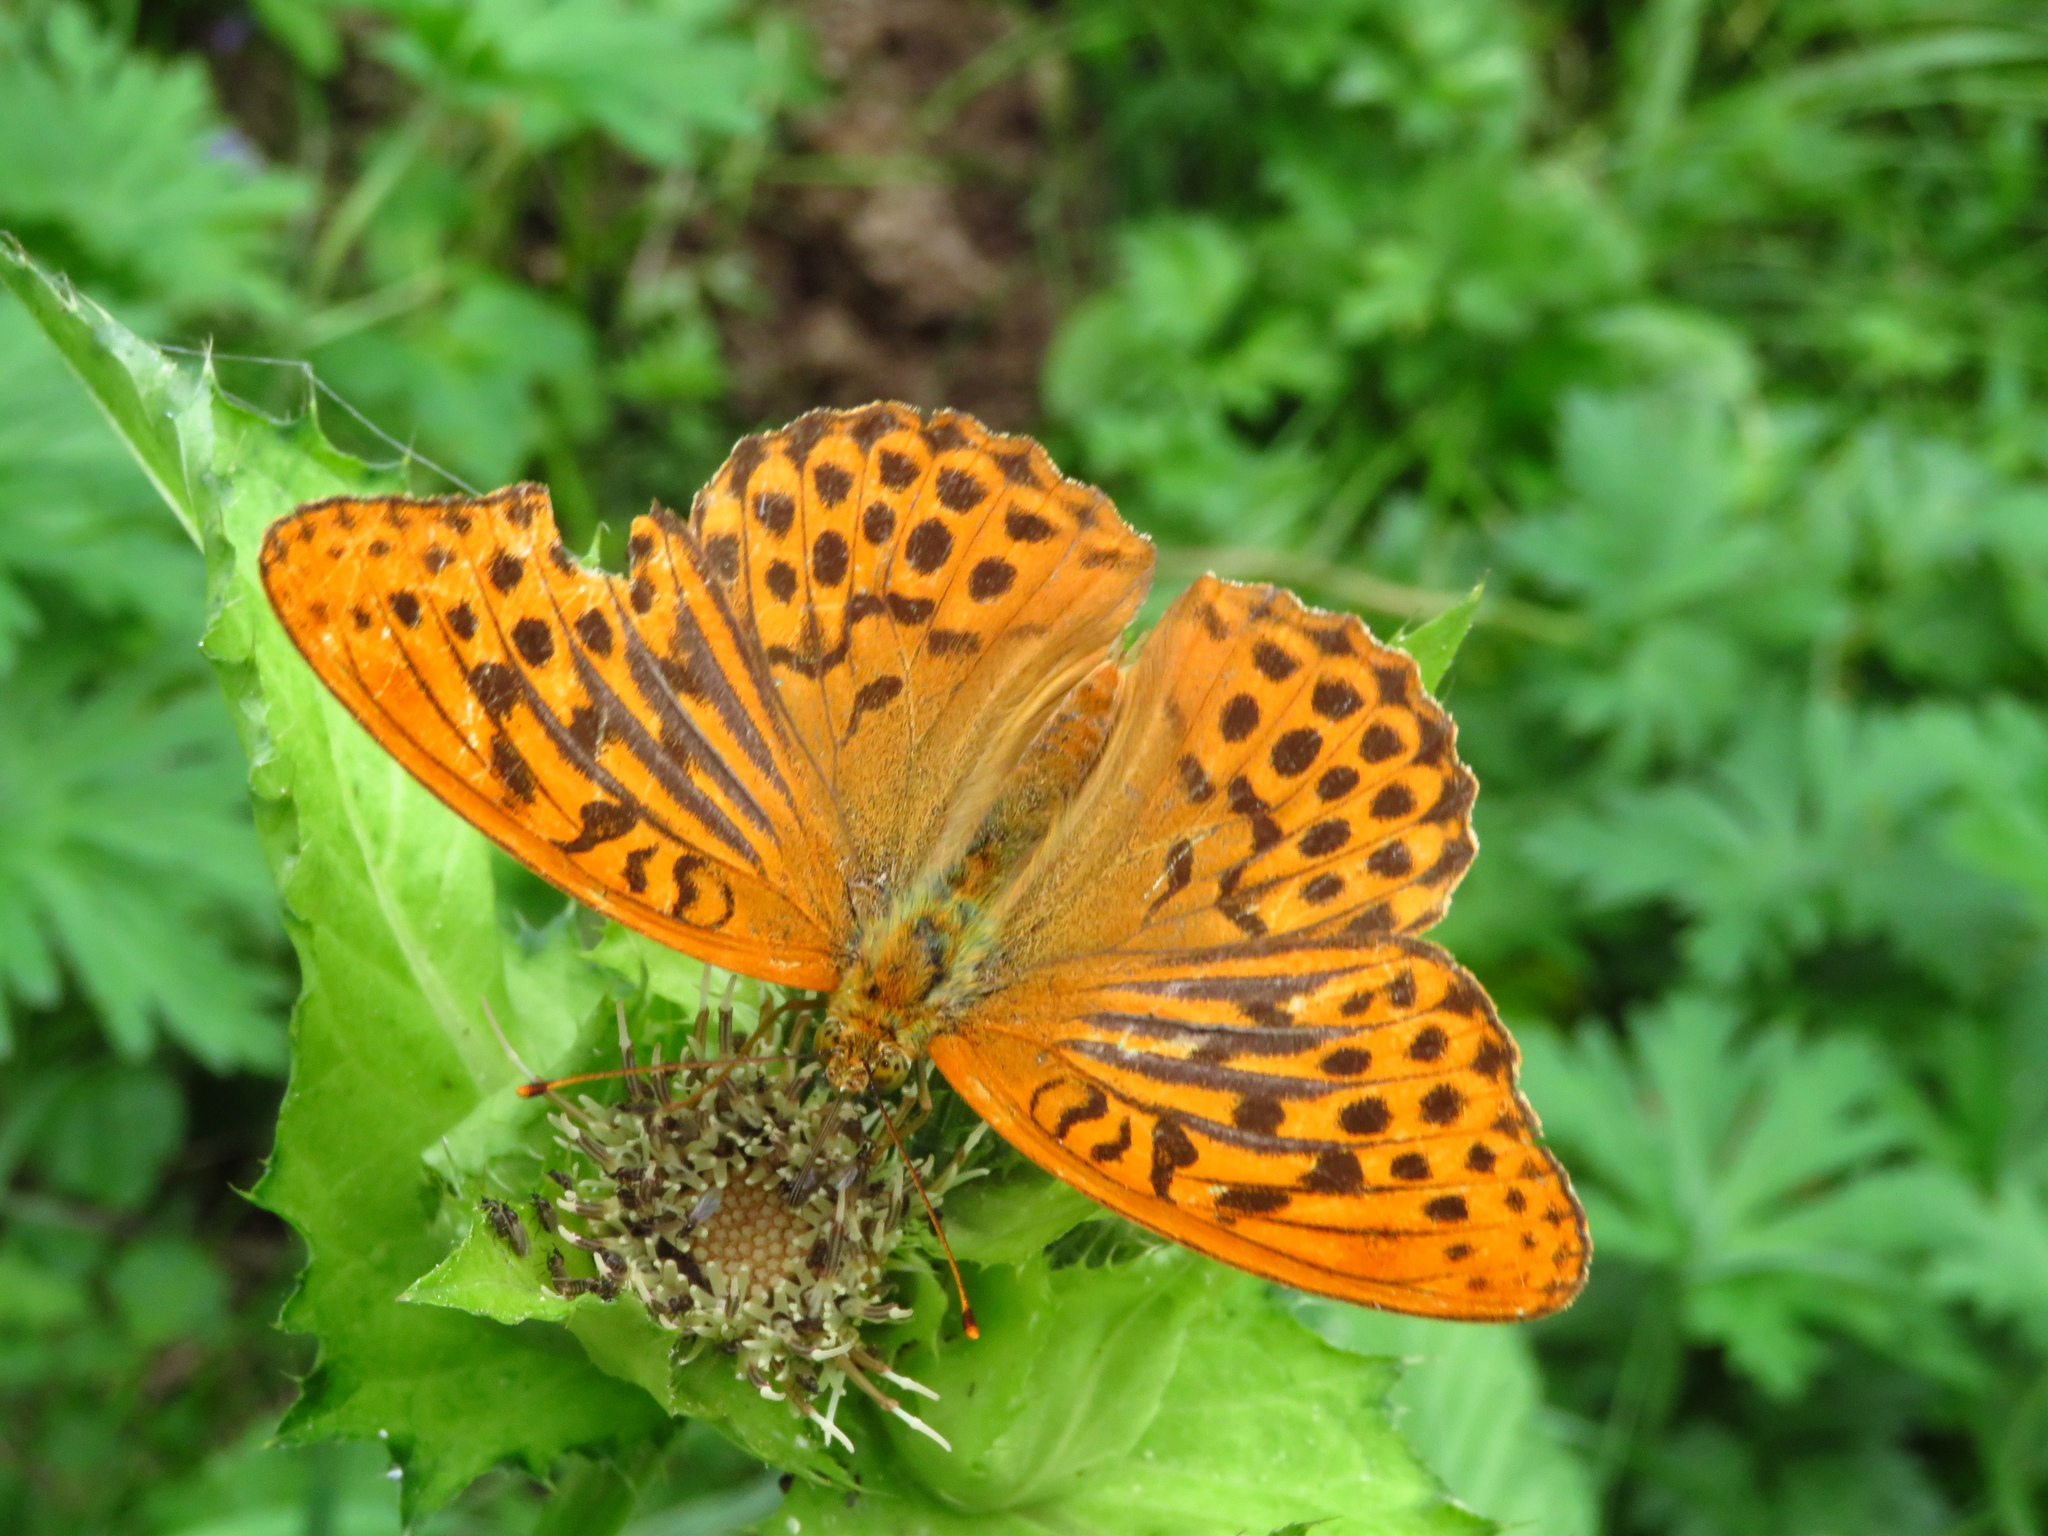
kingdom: Animalia
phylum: Arthropoda
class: Insecta
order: Lepidoptera
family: Nymphalidae
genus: Argynnis
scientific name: Argynnis paphia
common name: Silver-washed fritillary
